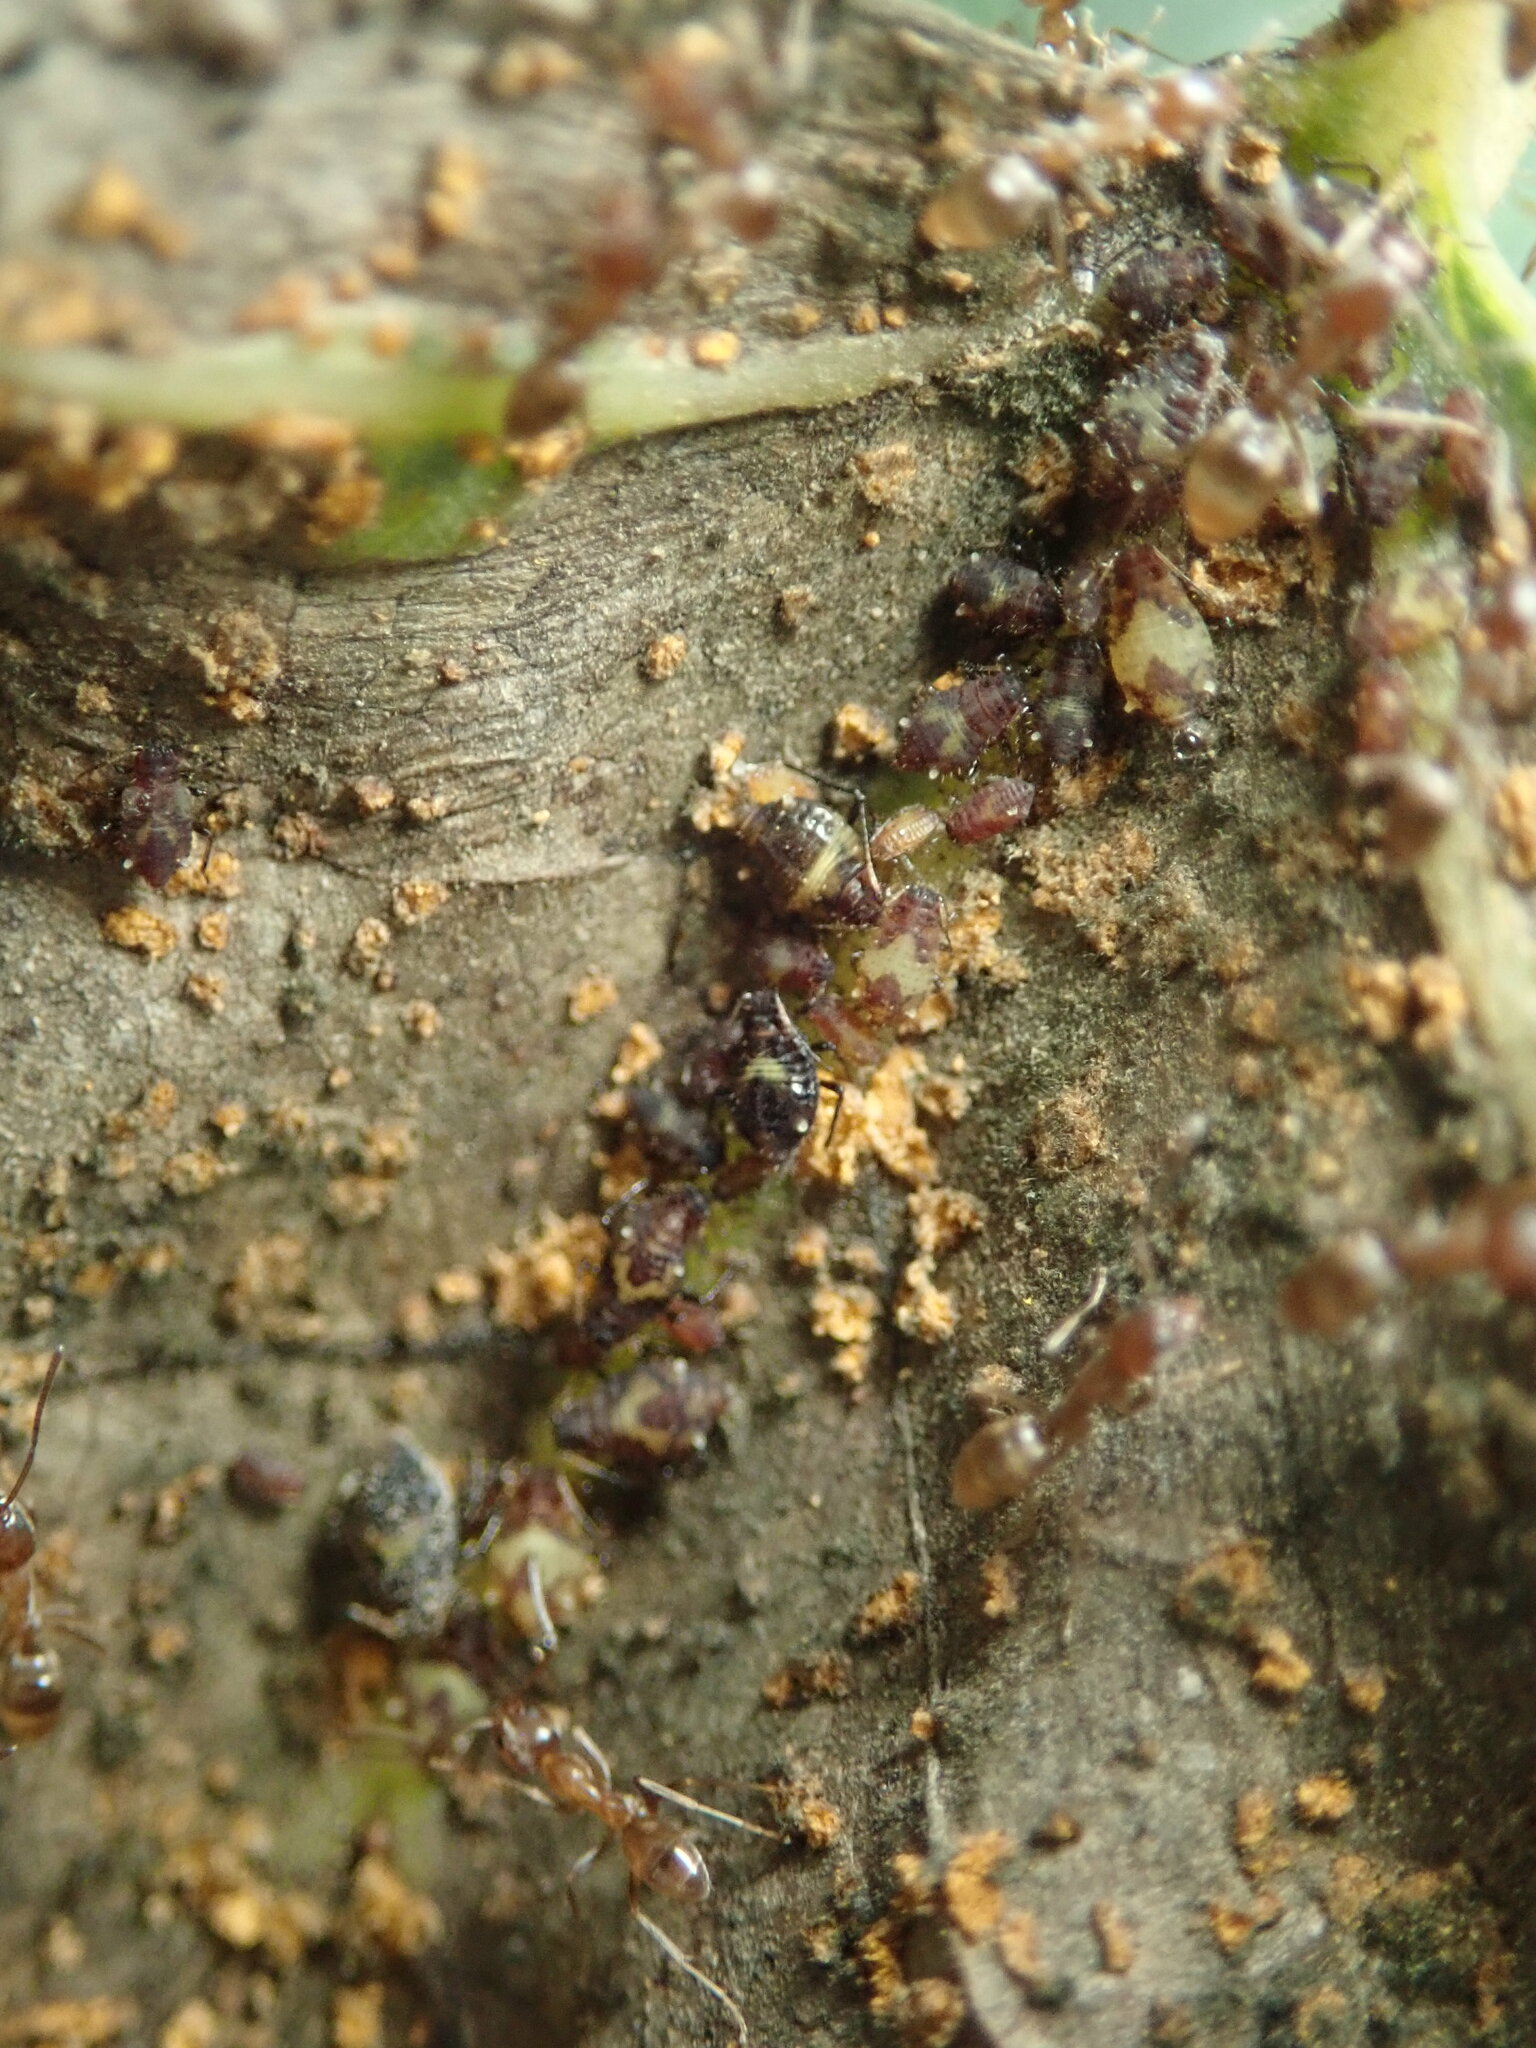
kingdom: Animalia
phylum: Arthropoda
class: Insecta
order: Hemiptera
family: Aphididae
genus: Chaitophorus
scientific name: Chaitophorus populicola
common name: Smokywinged poplar aphid
